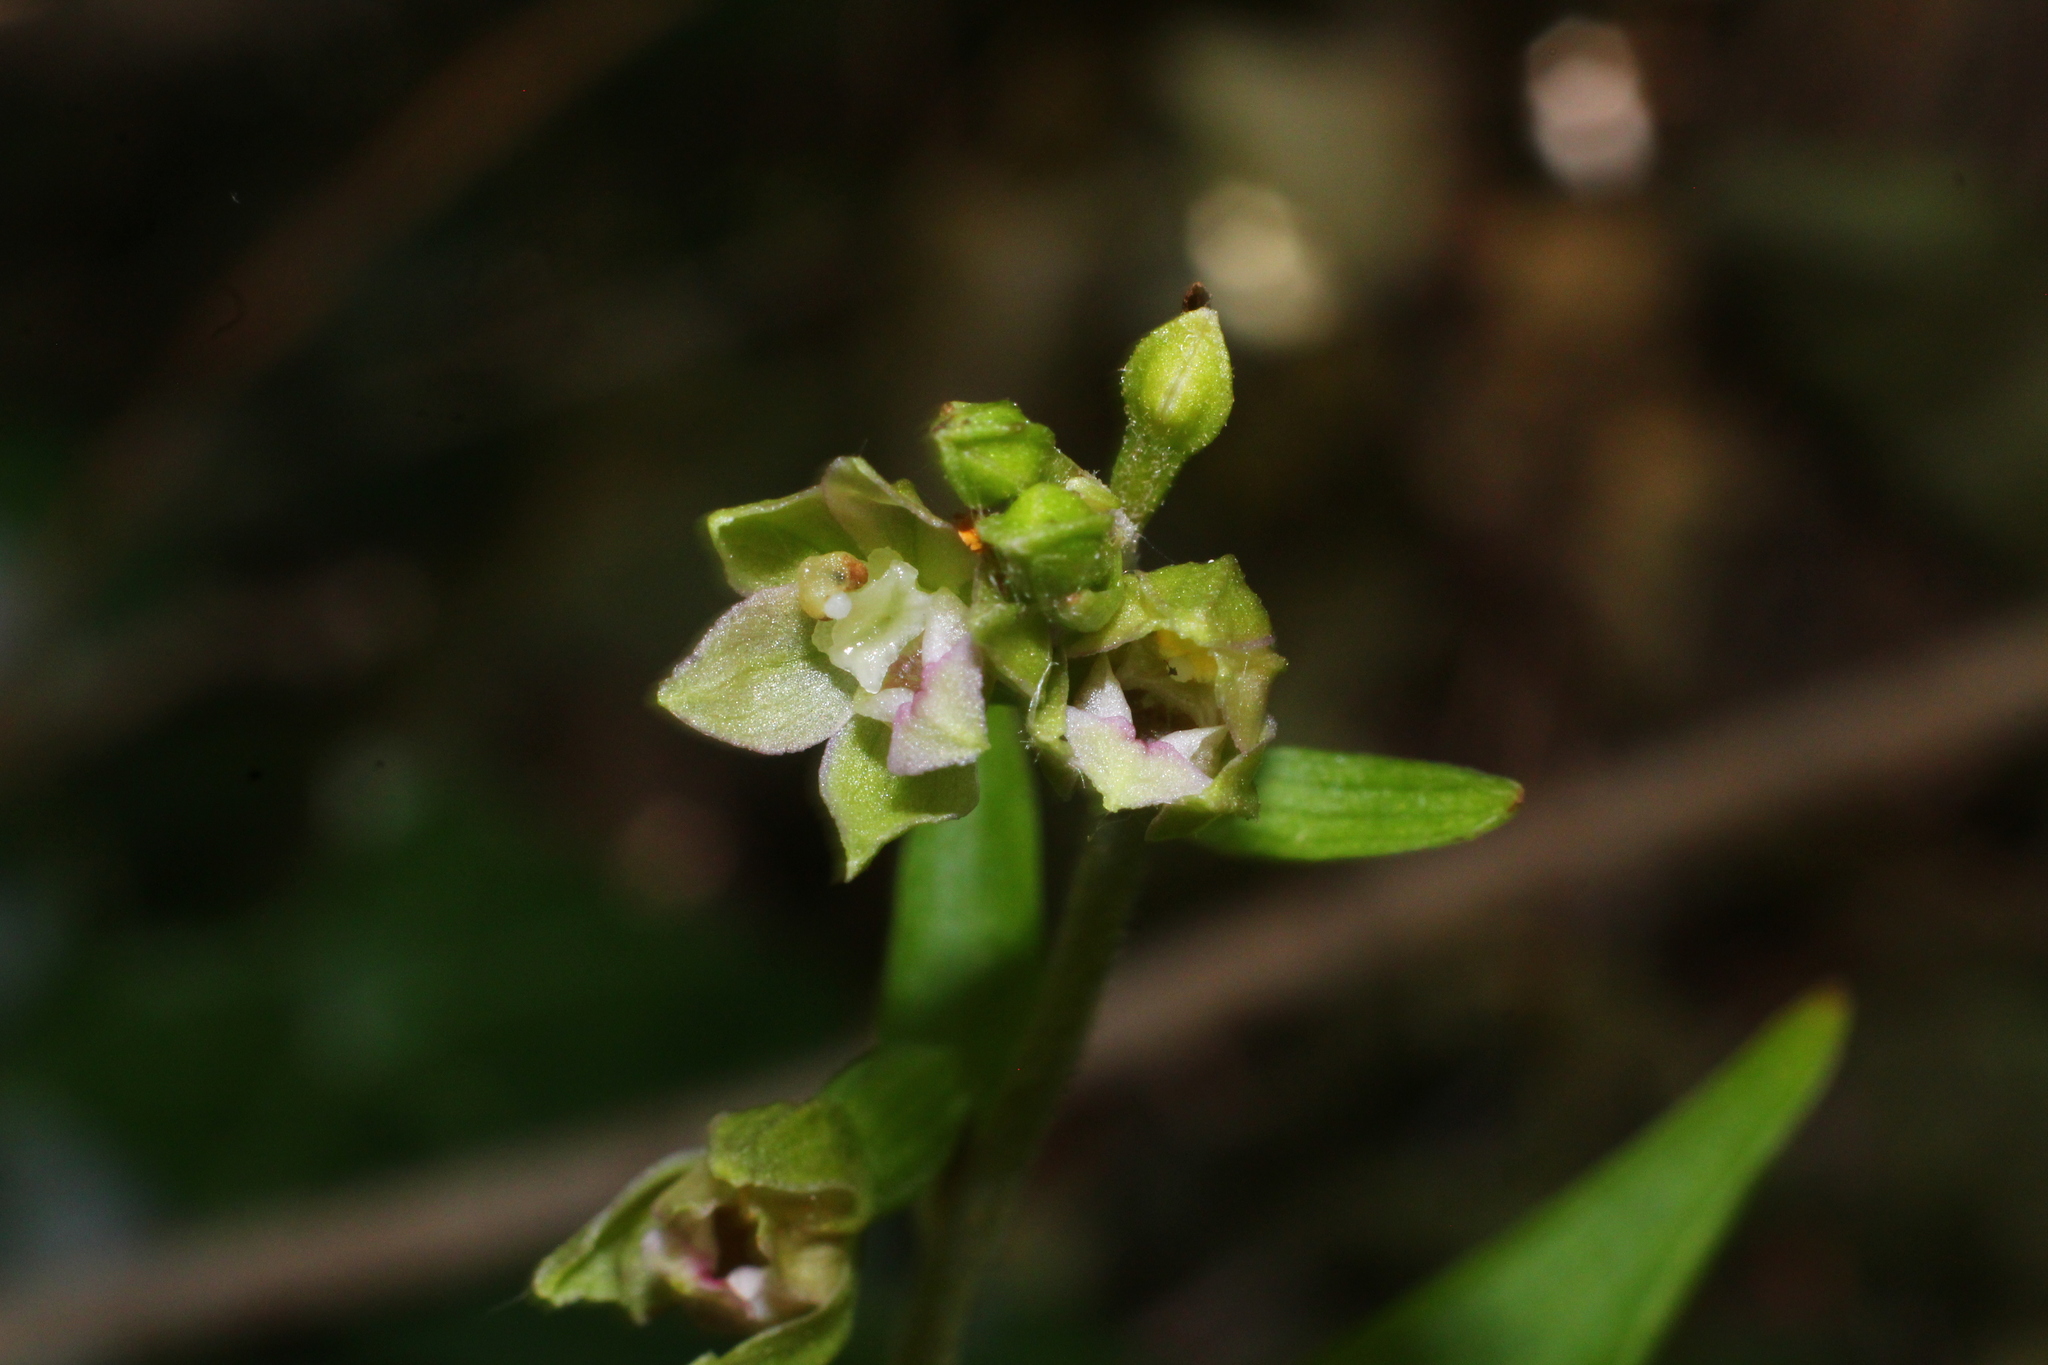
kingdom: Plantae
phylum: Tracheophyta
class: Liliopsida
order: Asparagales
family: Orchidaceae
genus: Epipactis
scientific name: Epipactis bugacensis
